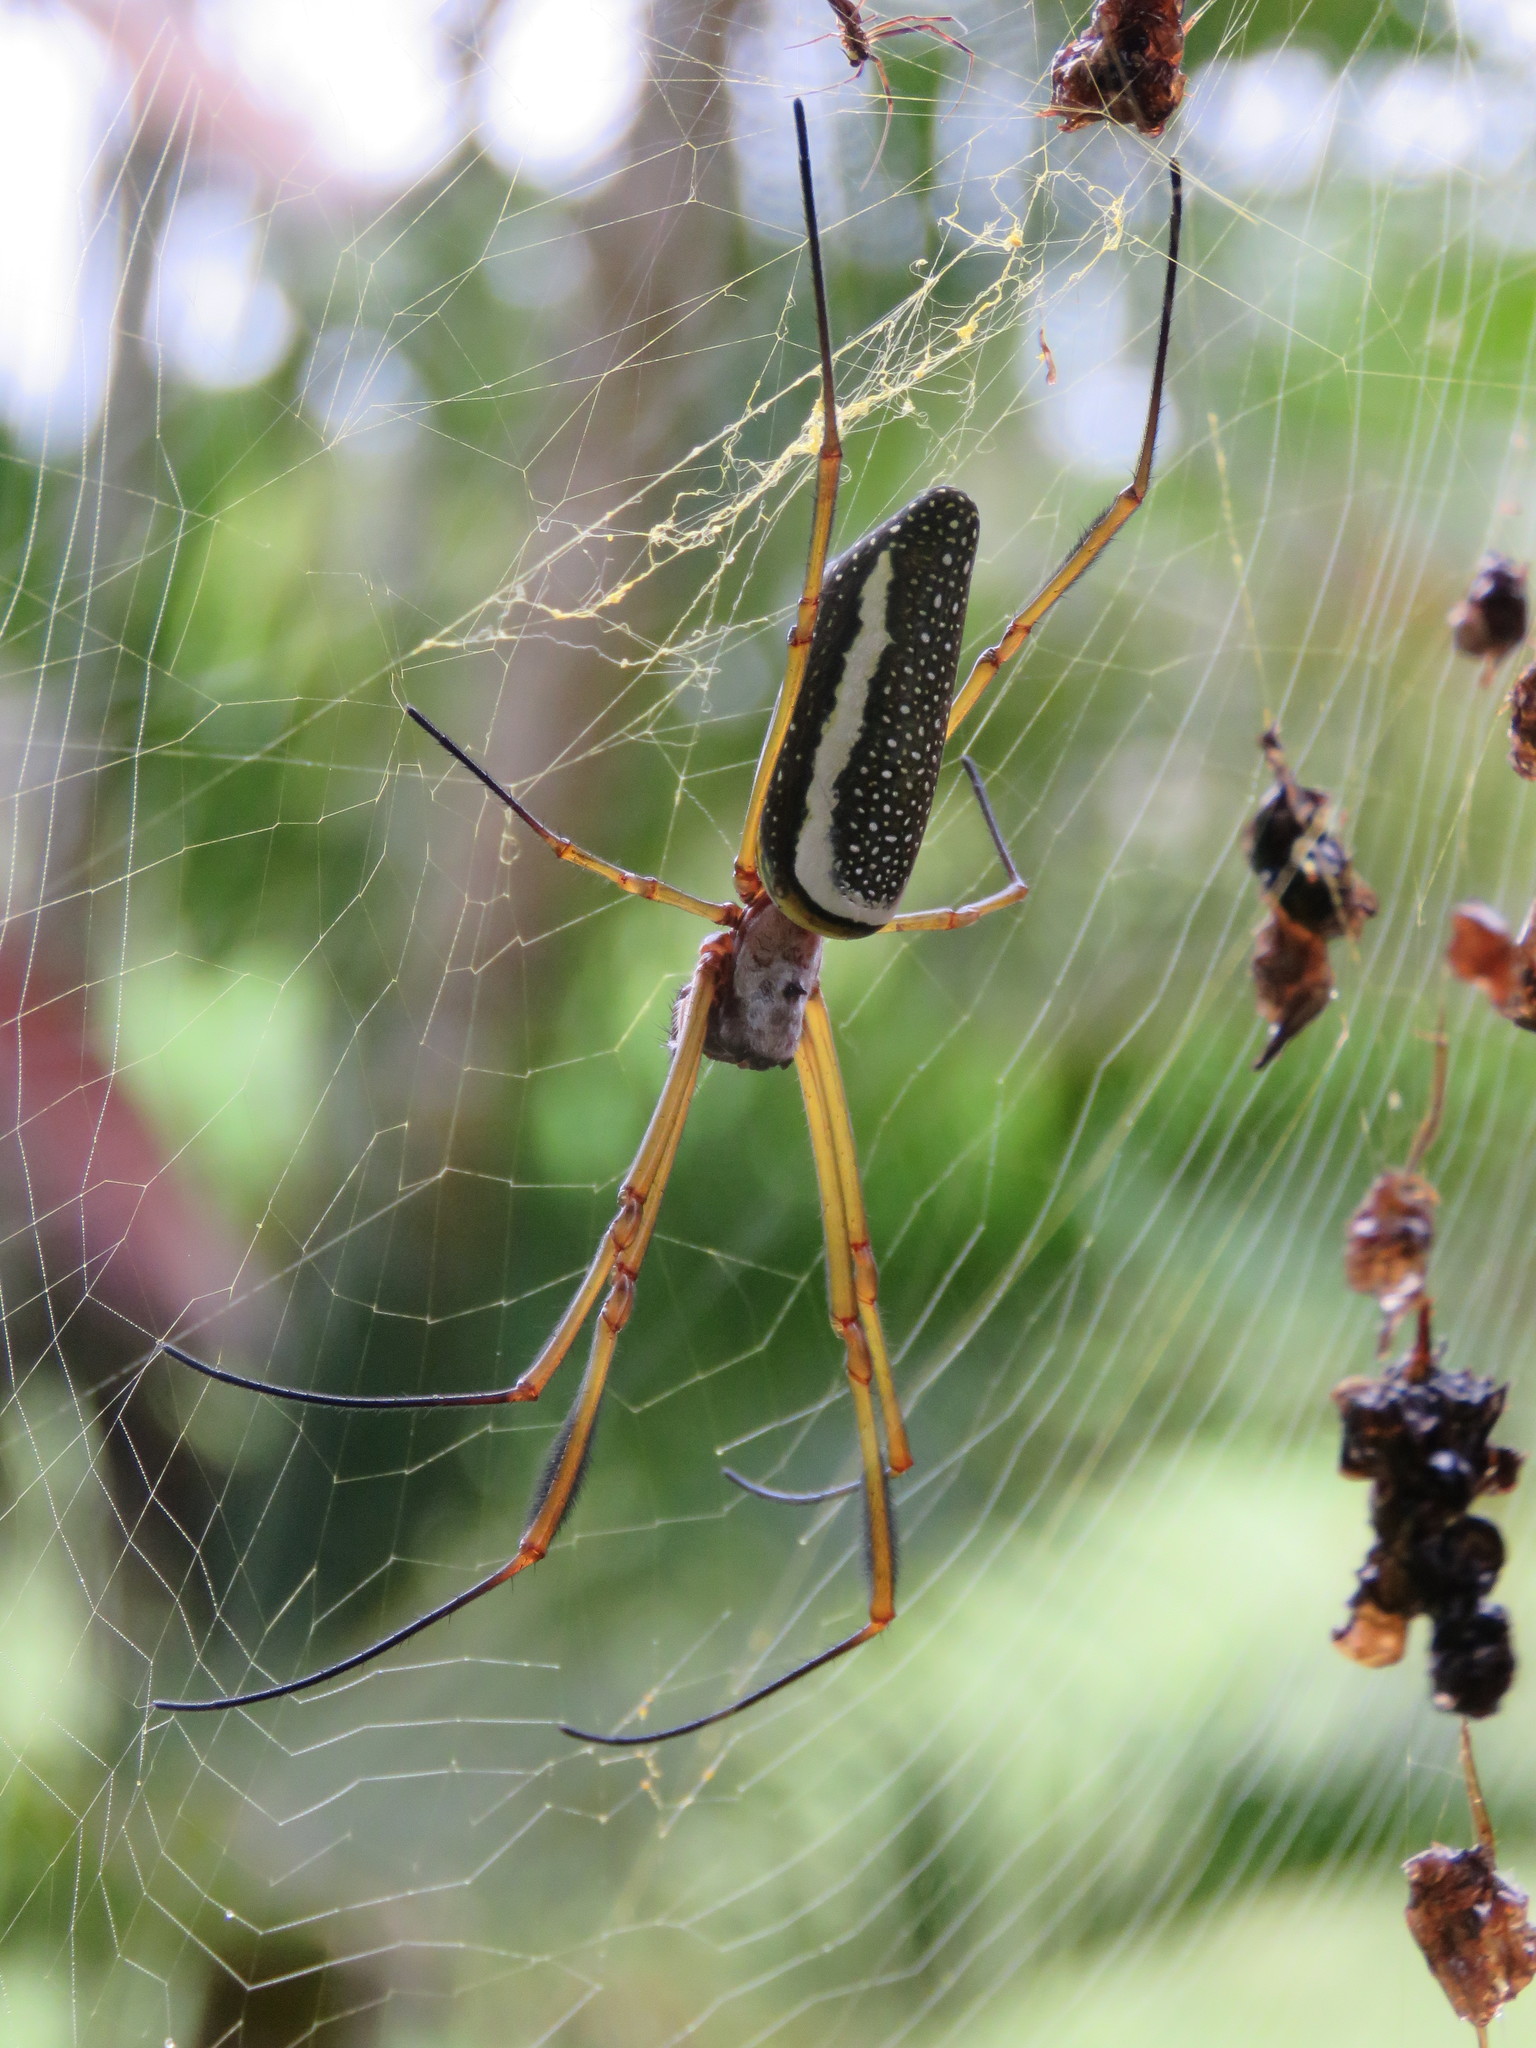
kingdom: Animalia
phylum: Arthropoda
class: Arachnida
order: Araneae
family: Araneidae
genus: Trichonephila
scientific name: Trichonephila clavipes
